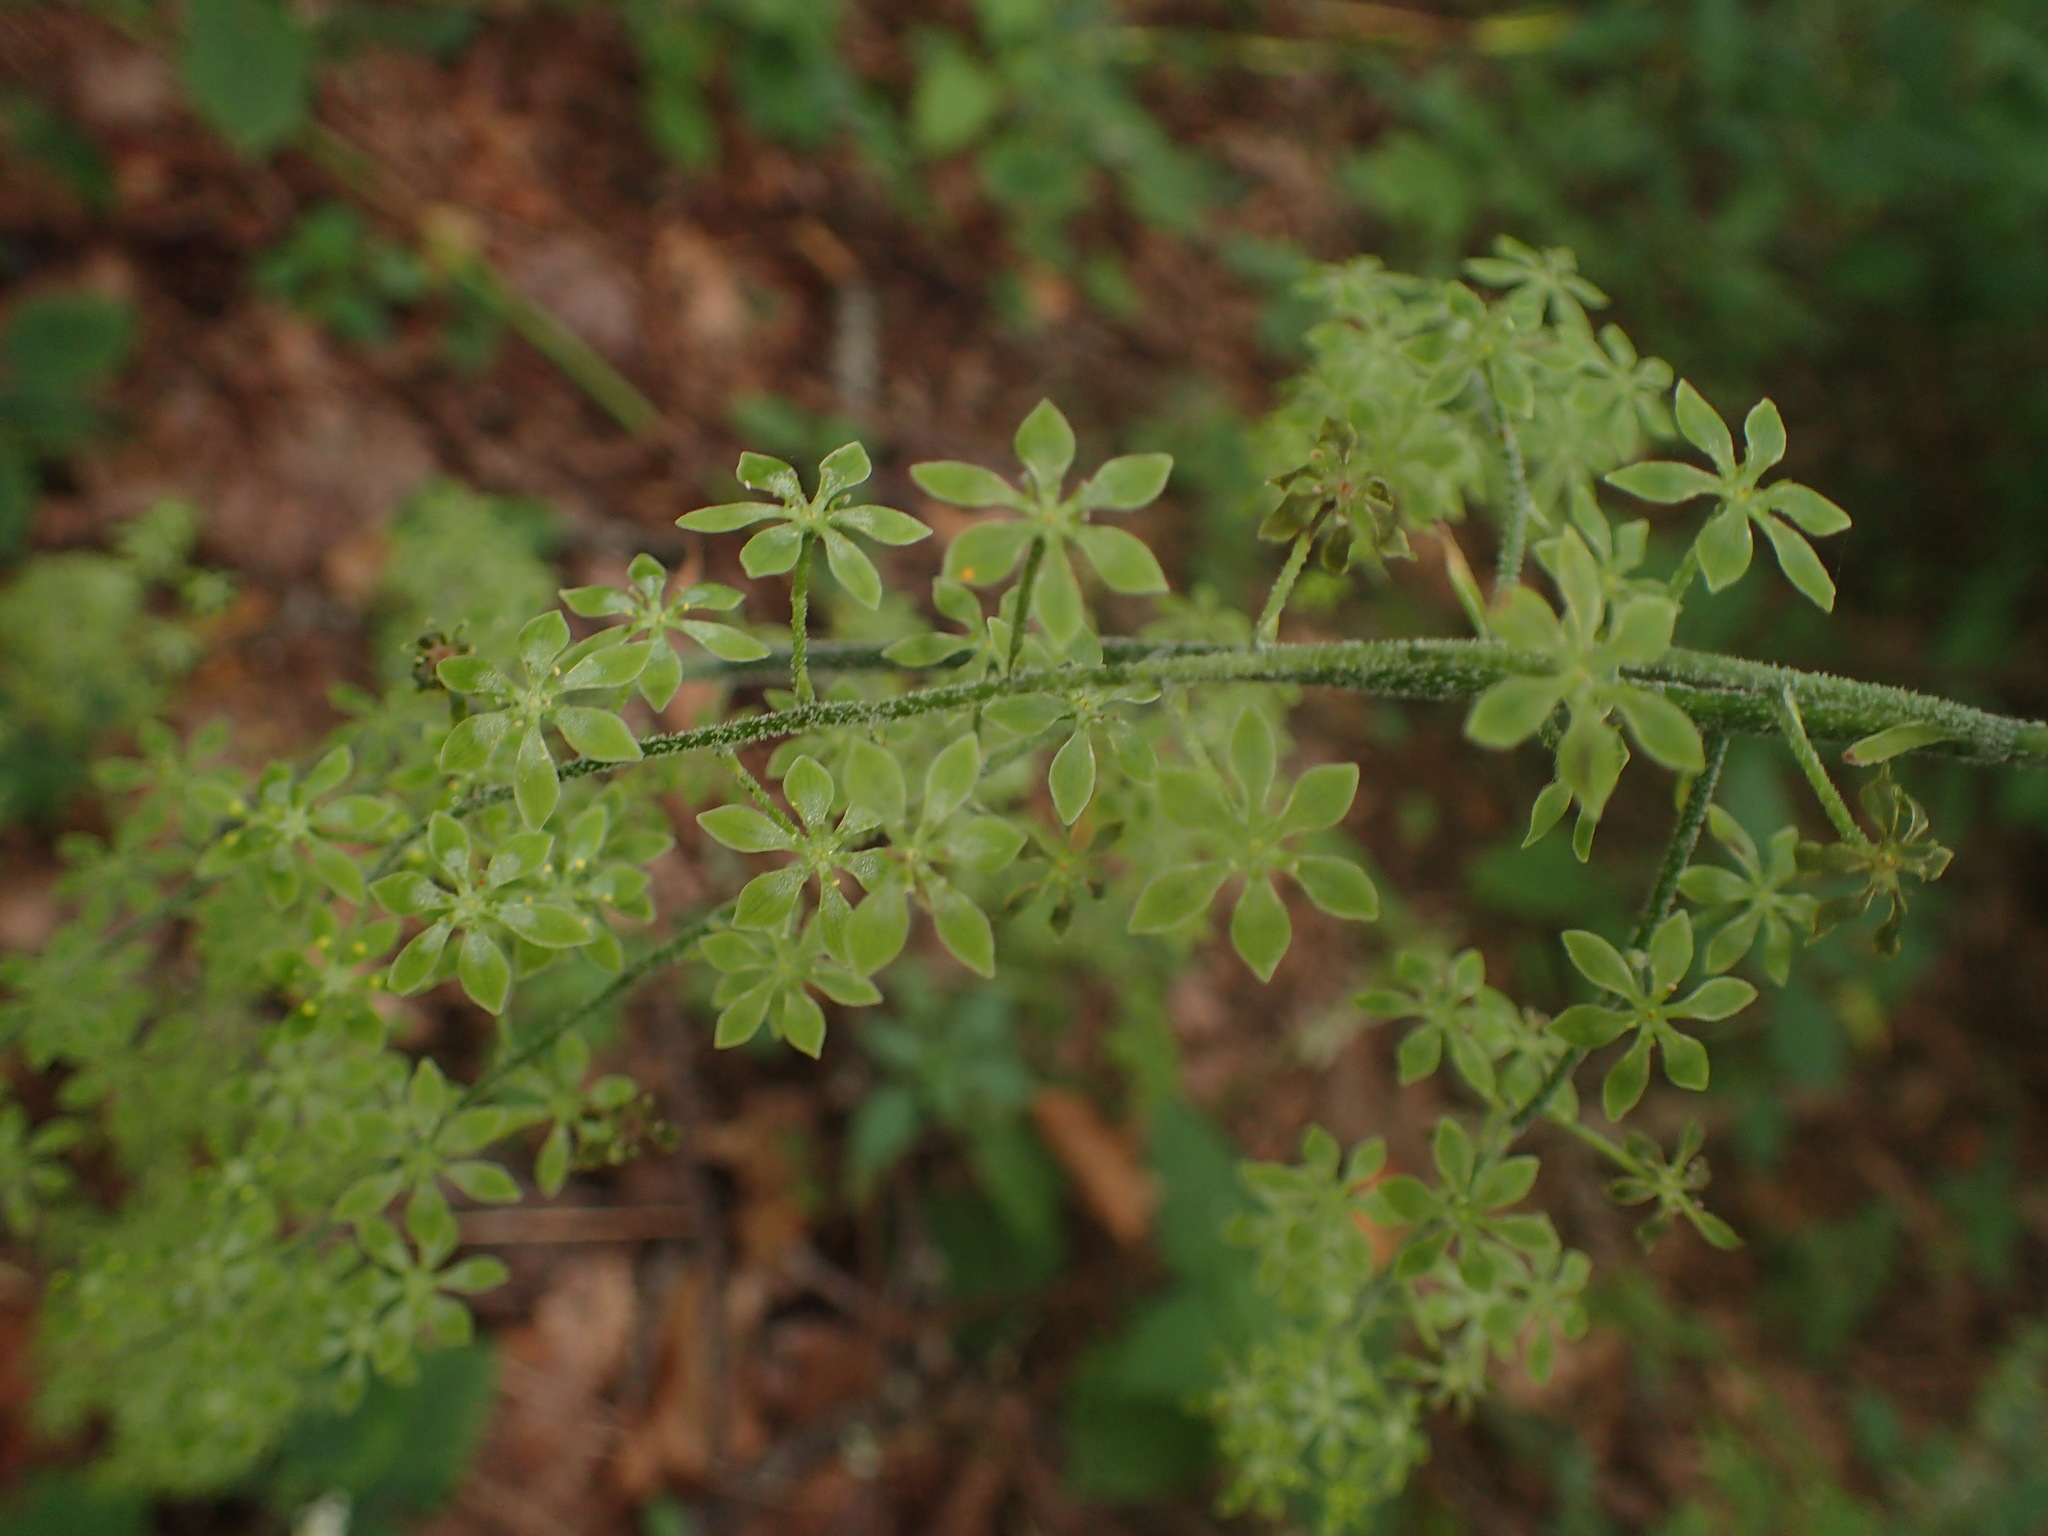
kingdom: Plantae
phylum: Tracheophyta
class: Liliopsida
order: Liliales
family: Melanthiaceae
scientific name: Melanthiaceae
